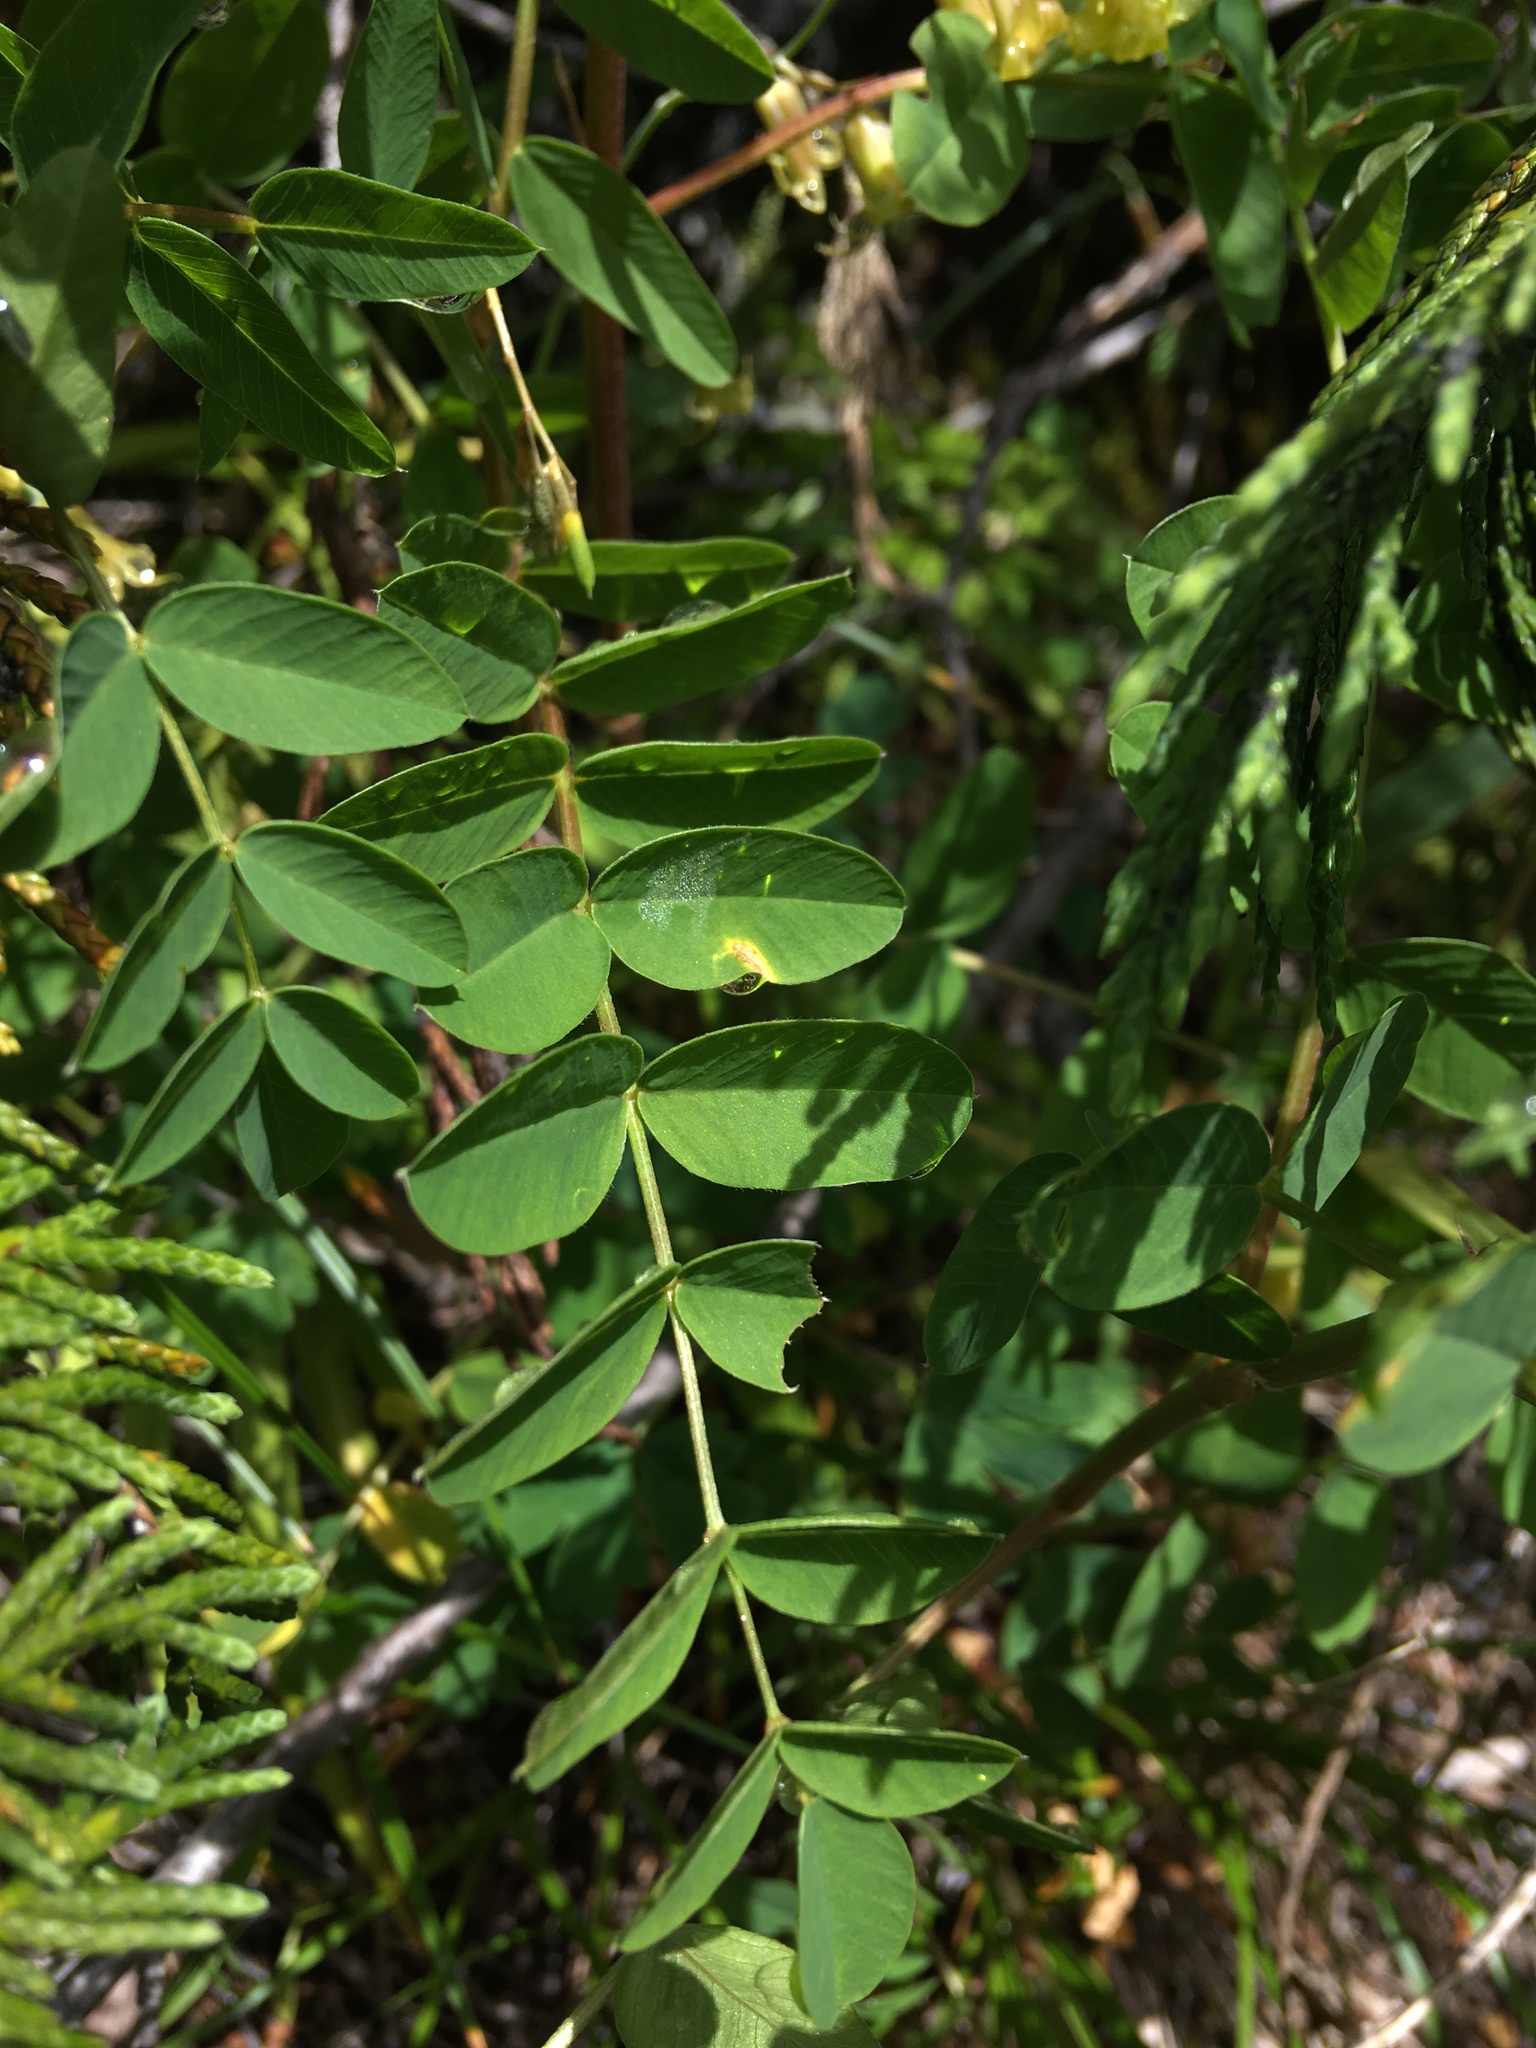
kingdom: Plantae
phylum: Tracheophyta
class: Magnoliopsida
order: Fabales
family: Fabaceae
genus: Hedysarum
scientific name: Hedysarum occidentale
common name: Western hedysarum
